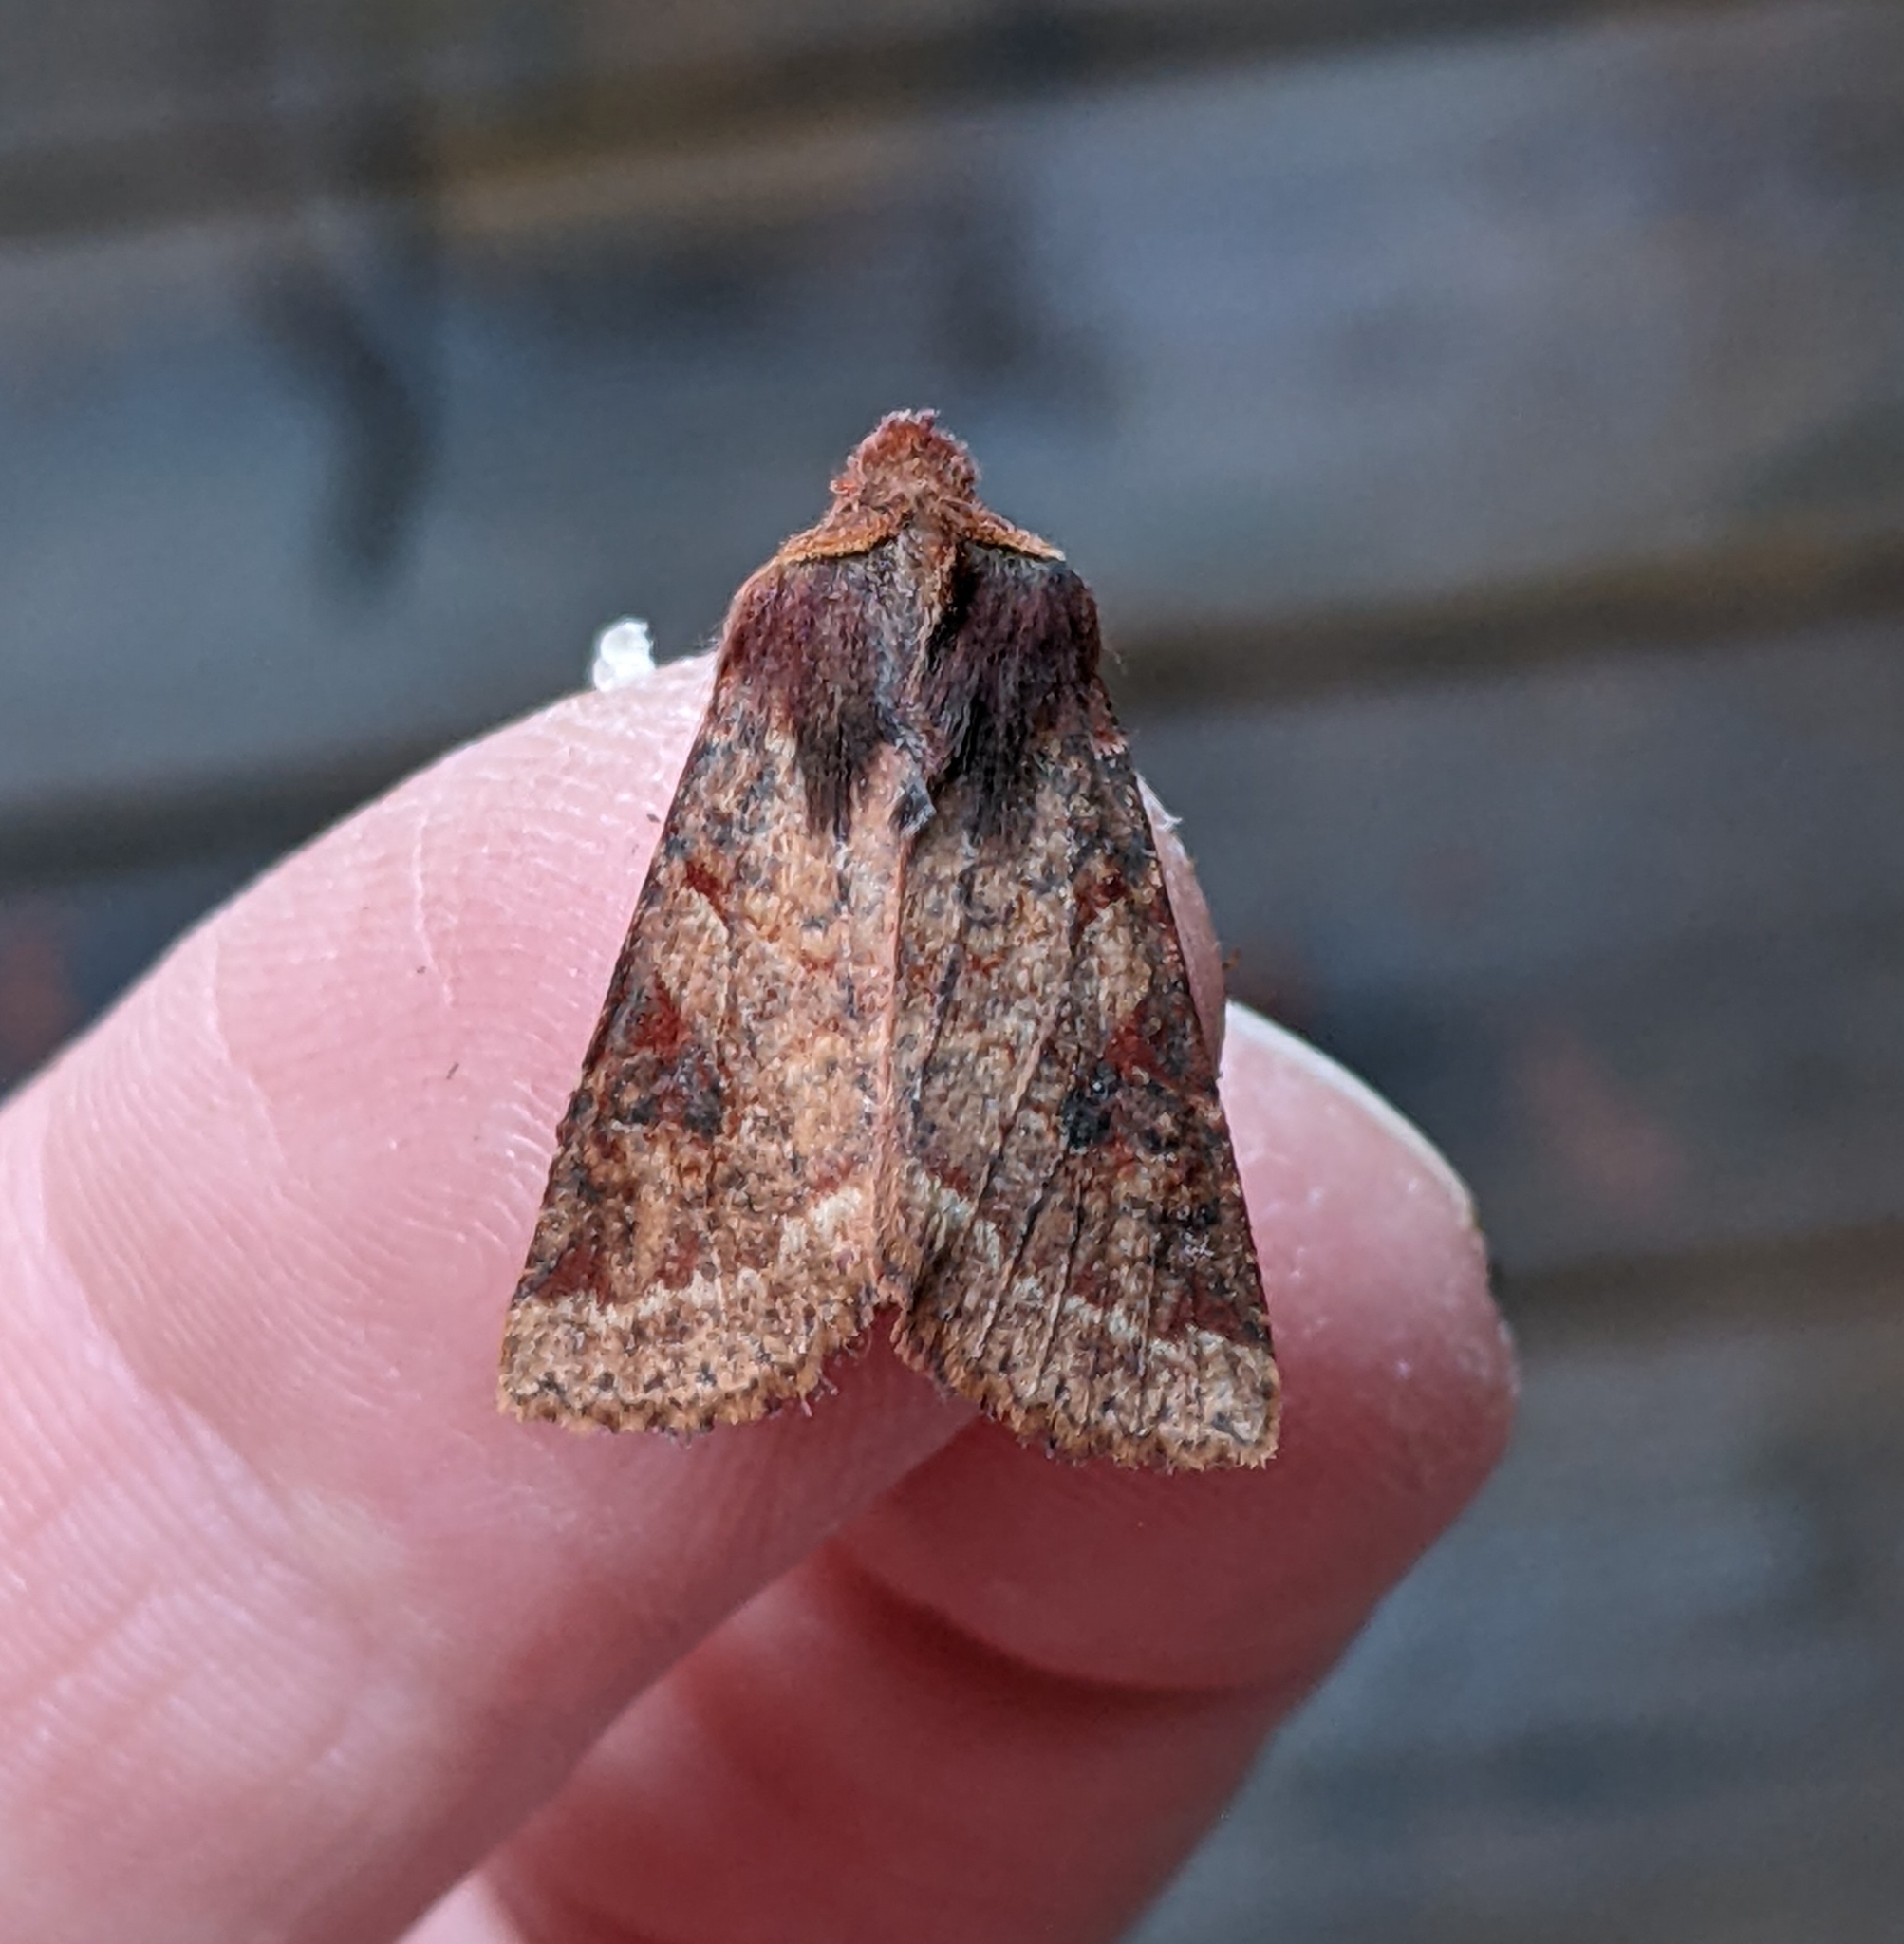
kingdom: Animalia
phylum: Arthropoda
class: Insecta
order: Lepidoptera
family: Noctuidae
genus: Orthosia
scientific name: Orthosia praeses
